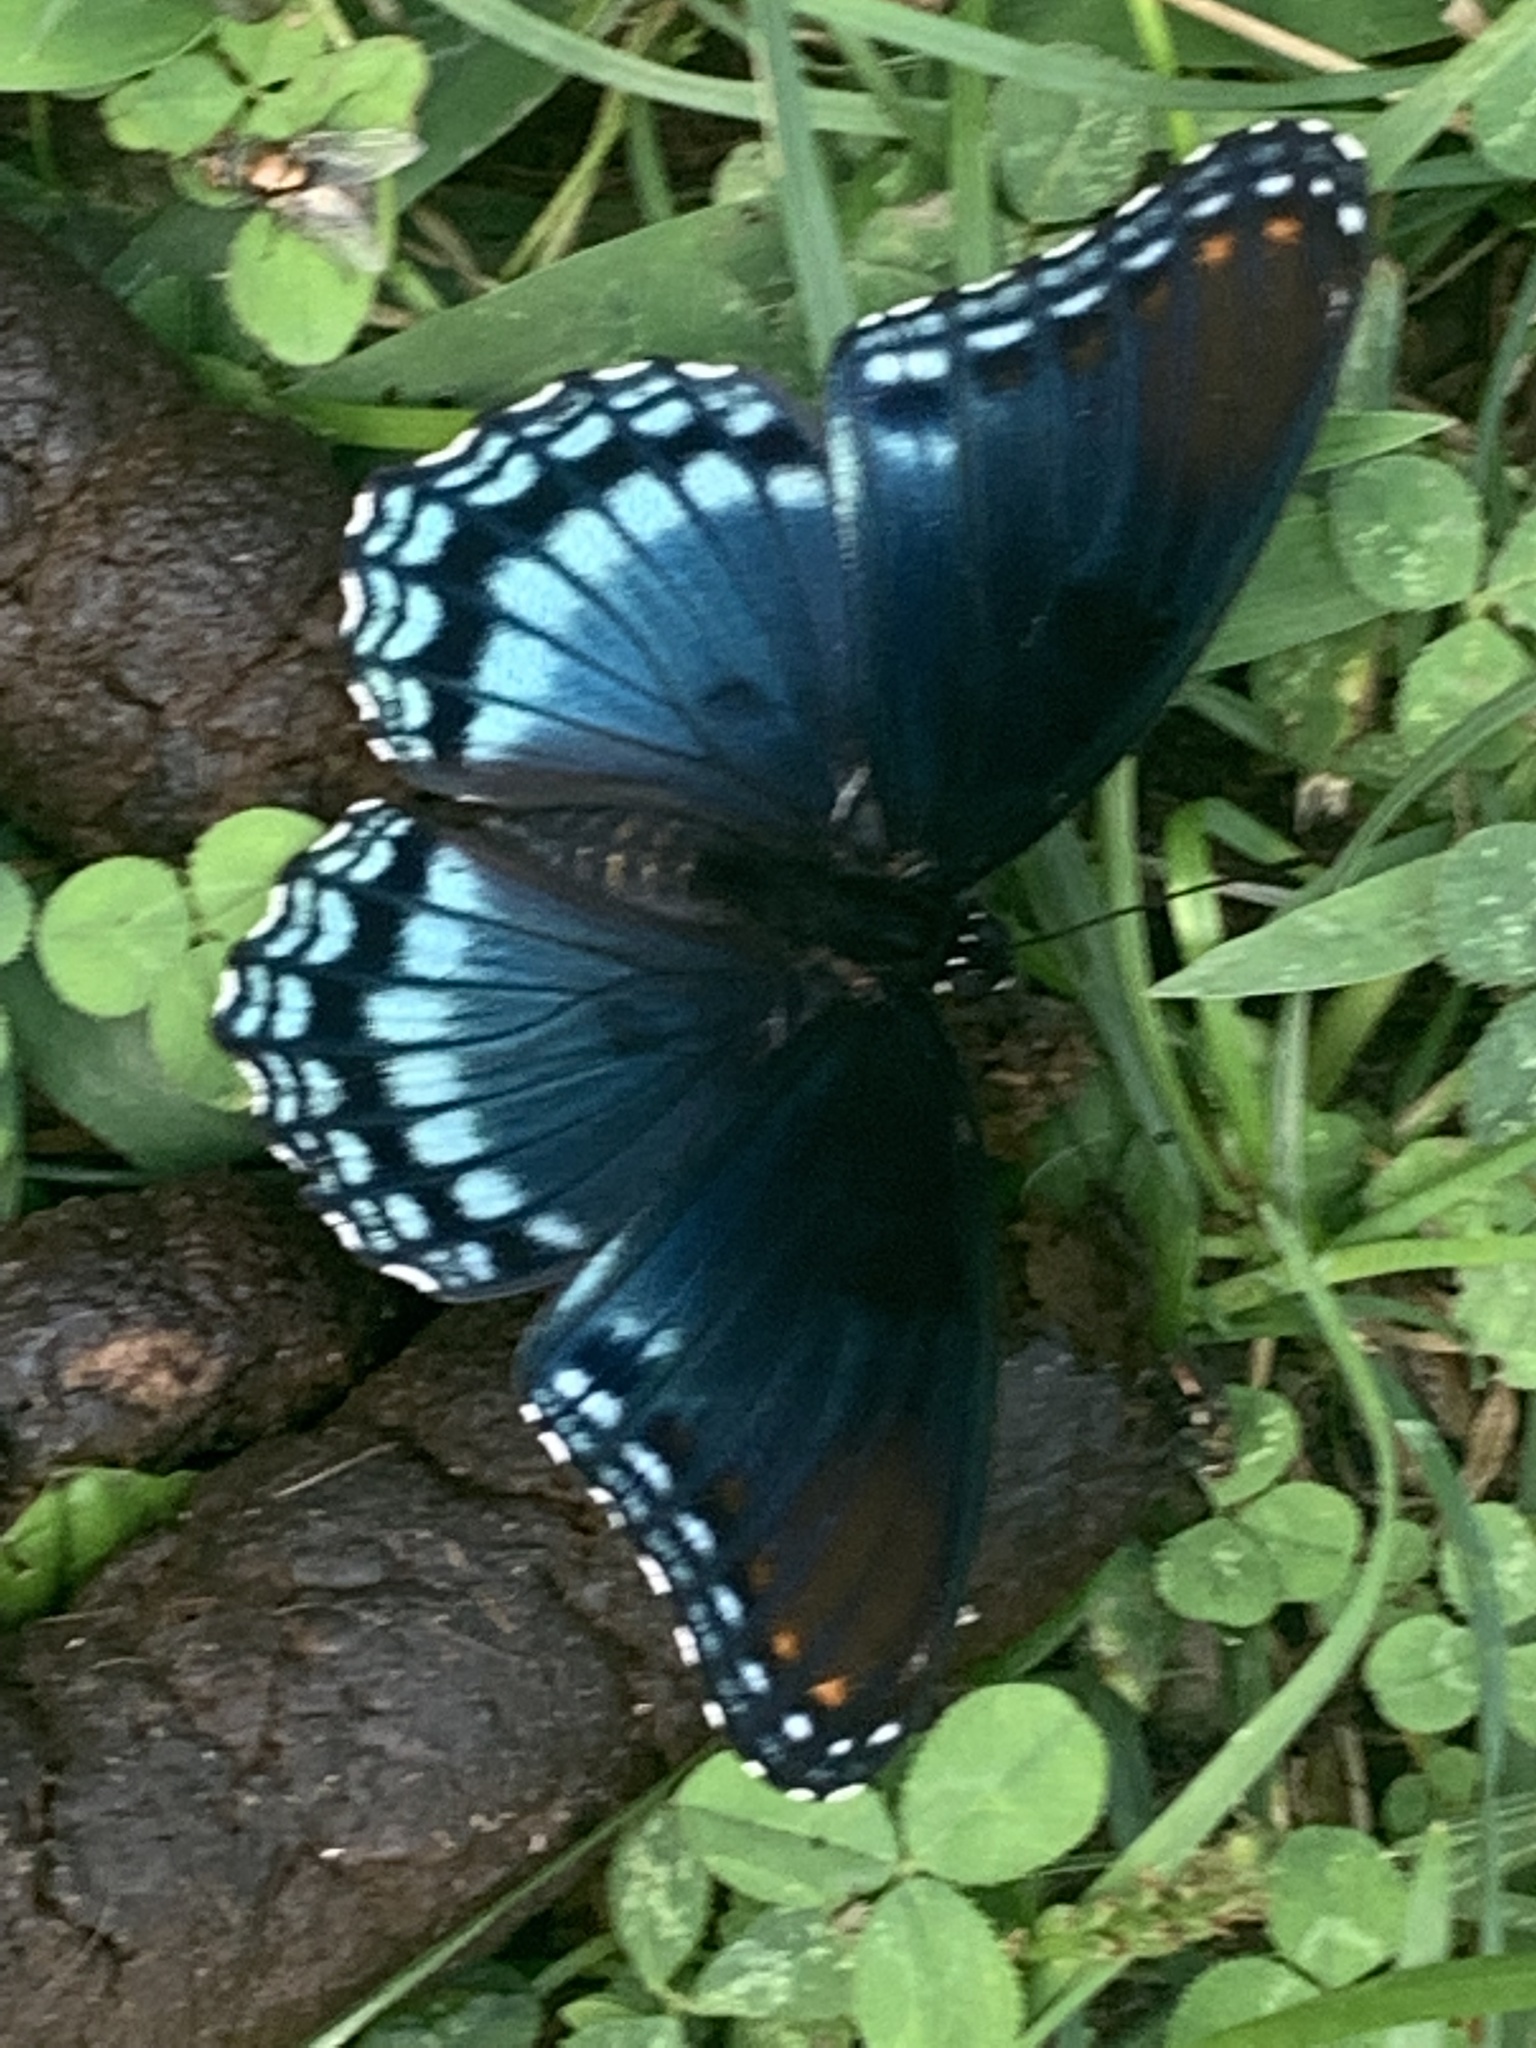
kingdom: Animalia
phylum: Arthropoda
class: Insecta
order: Lepidoptera
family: Nymphalidae
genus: Limenitis
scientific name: Limenitis astyanax
